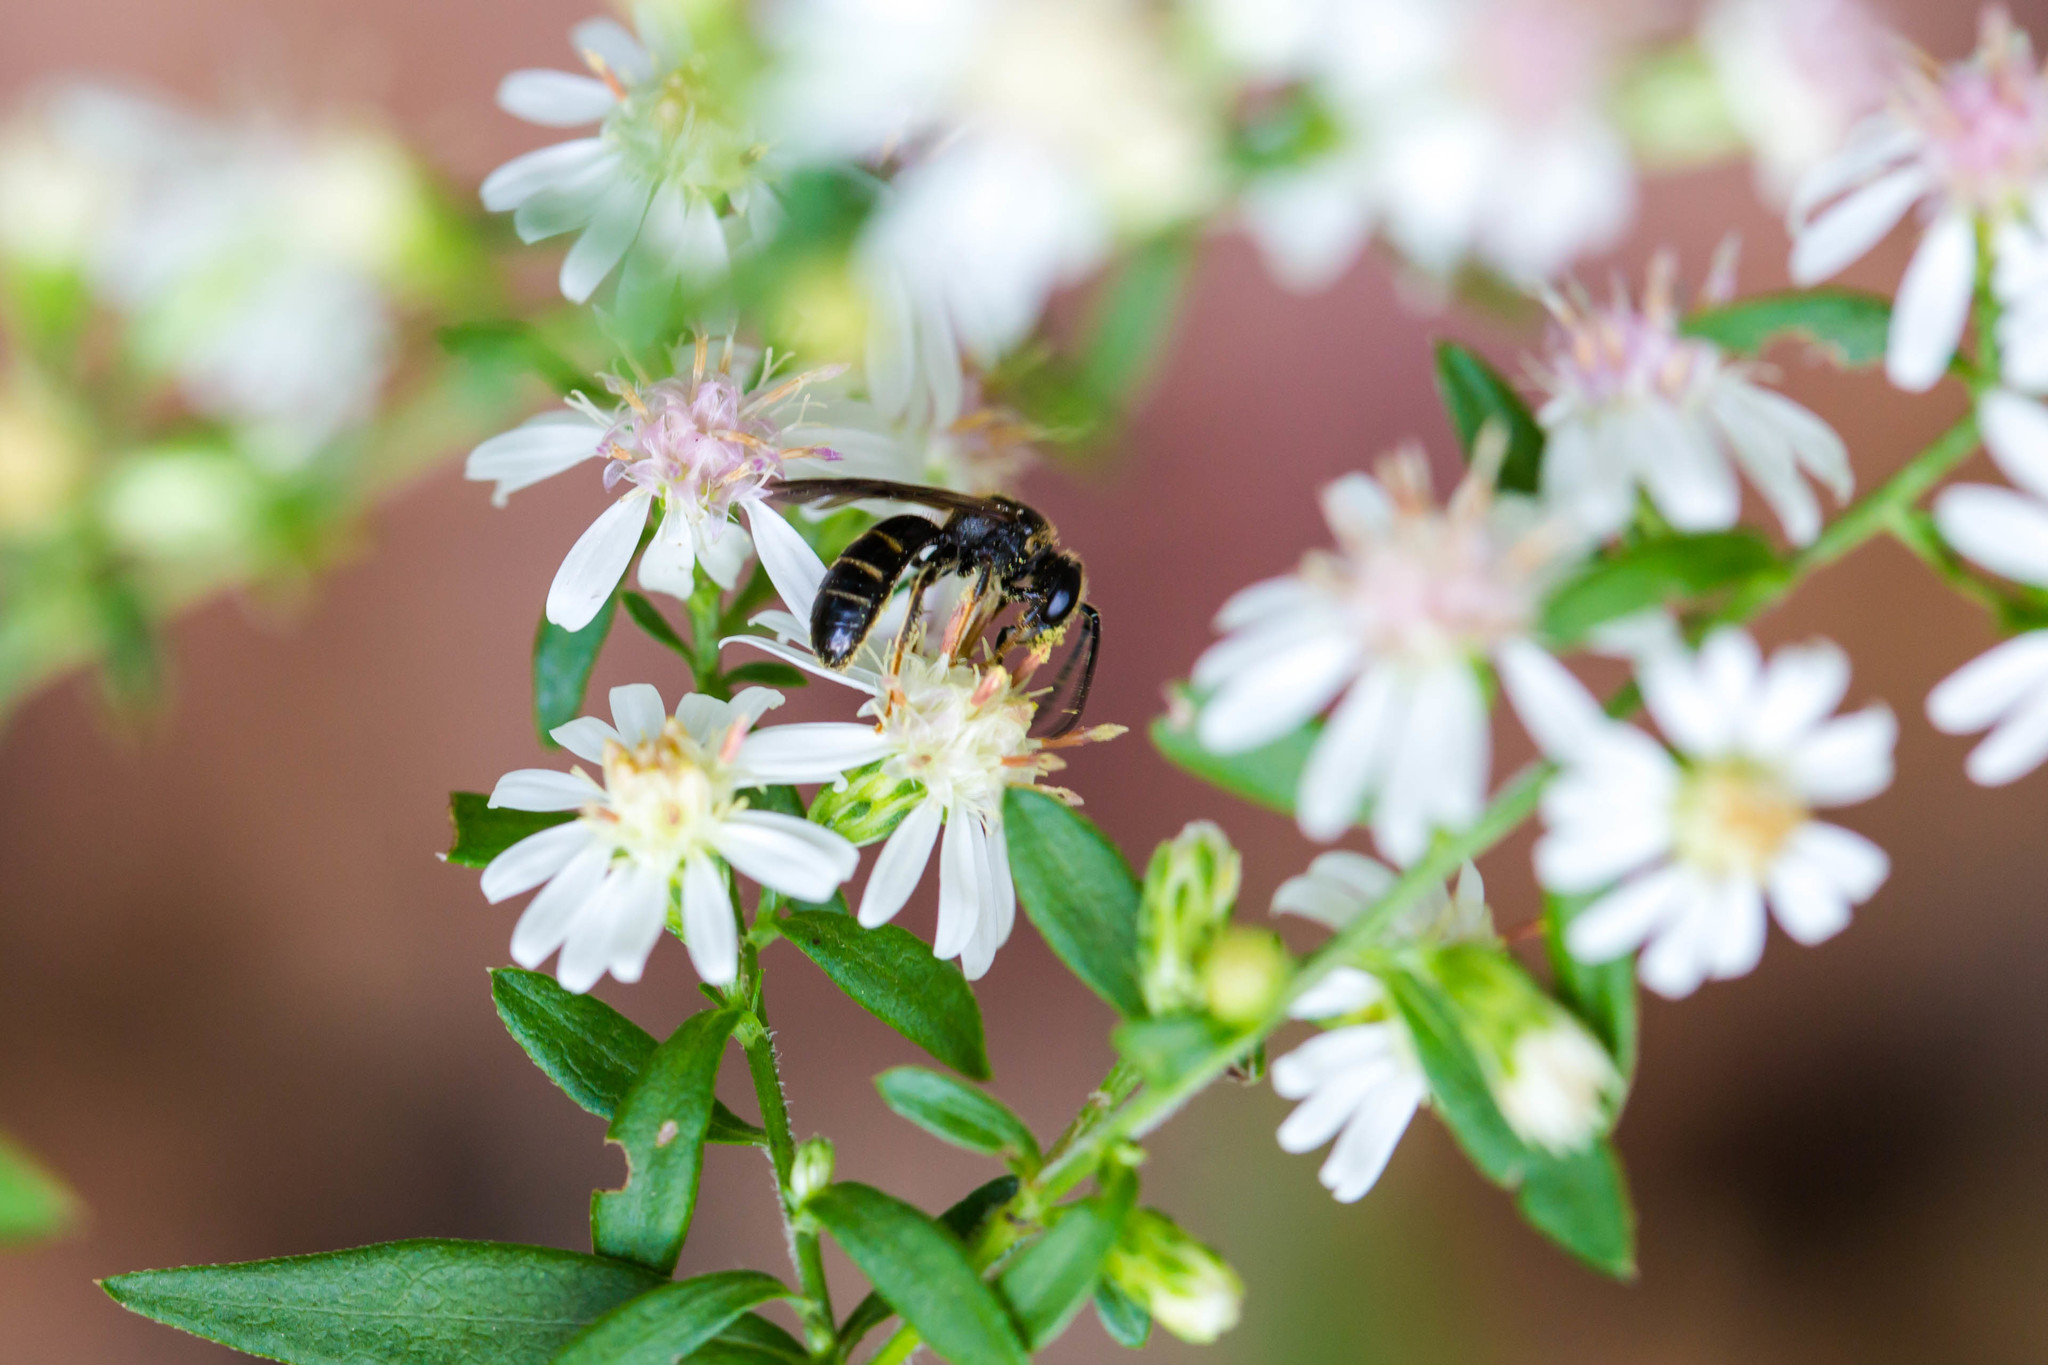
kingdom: Animalia
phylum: Arthropoda
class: Insecta
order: Hymenoptera
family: Halictidae
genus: Lasioglossum
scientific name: Lasioglossum fuscipenne
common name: Brown-winged sweat bee
